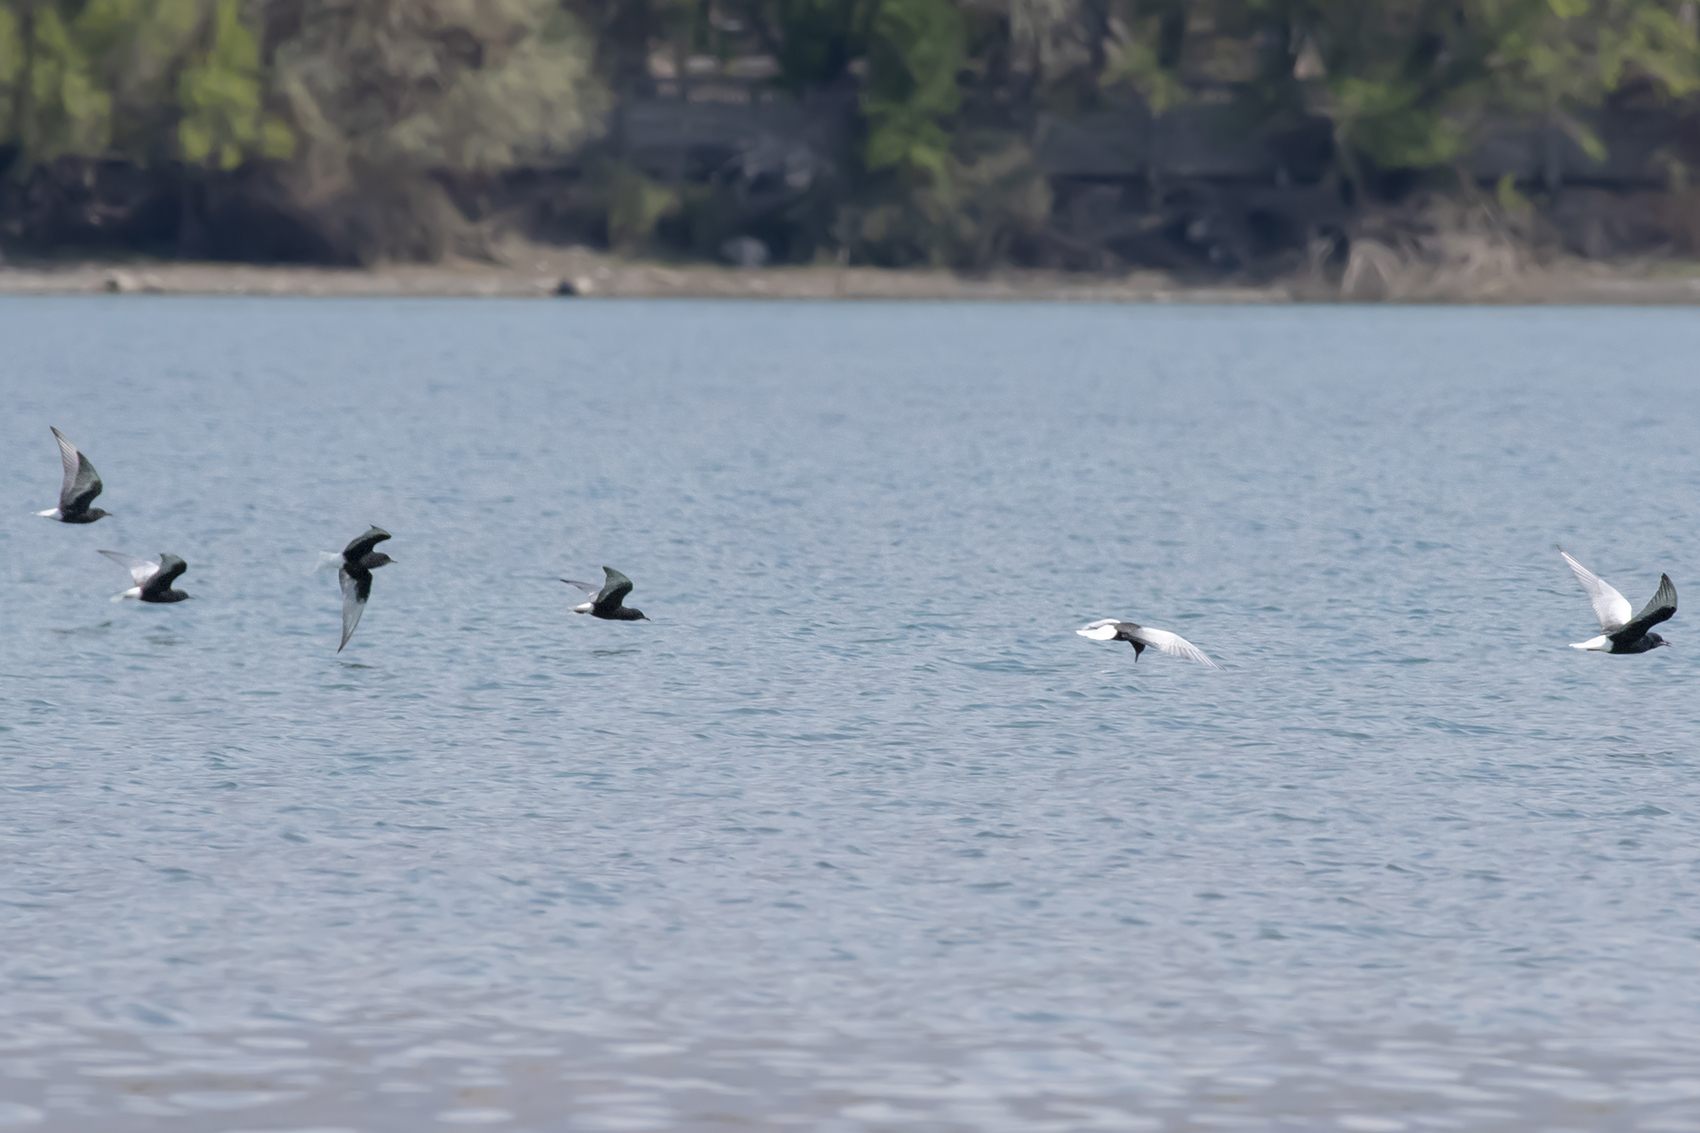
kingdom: Animalia
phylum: Chordata
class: Aves
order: Charadriiformes
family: Laridae
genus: Chlidonias
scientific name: Chlidonias leucopterus
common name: White-winged tern
